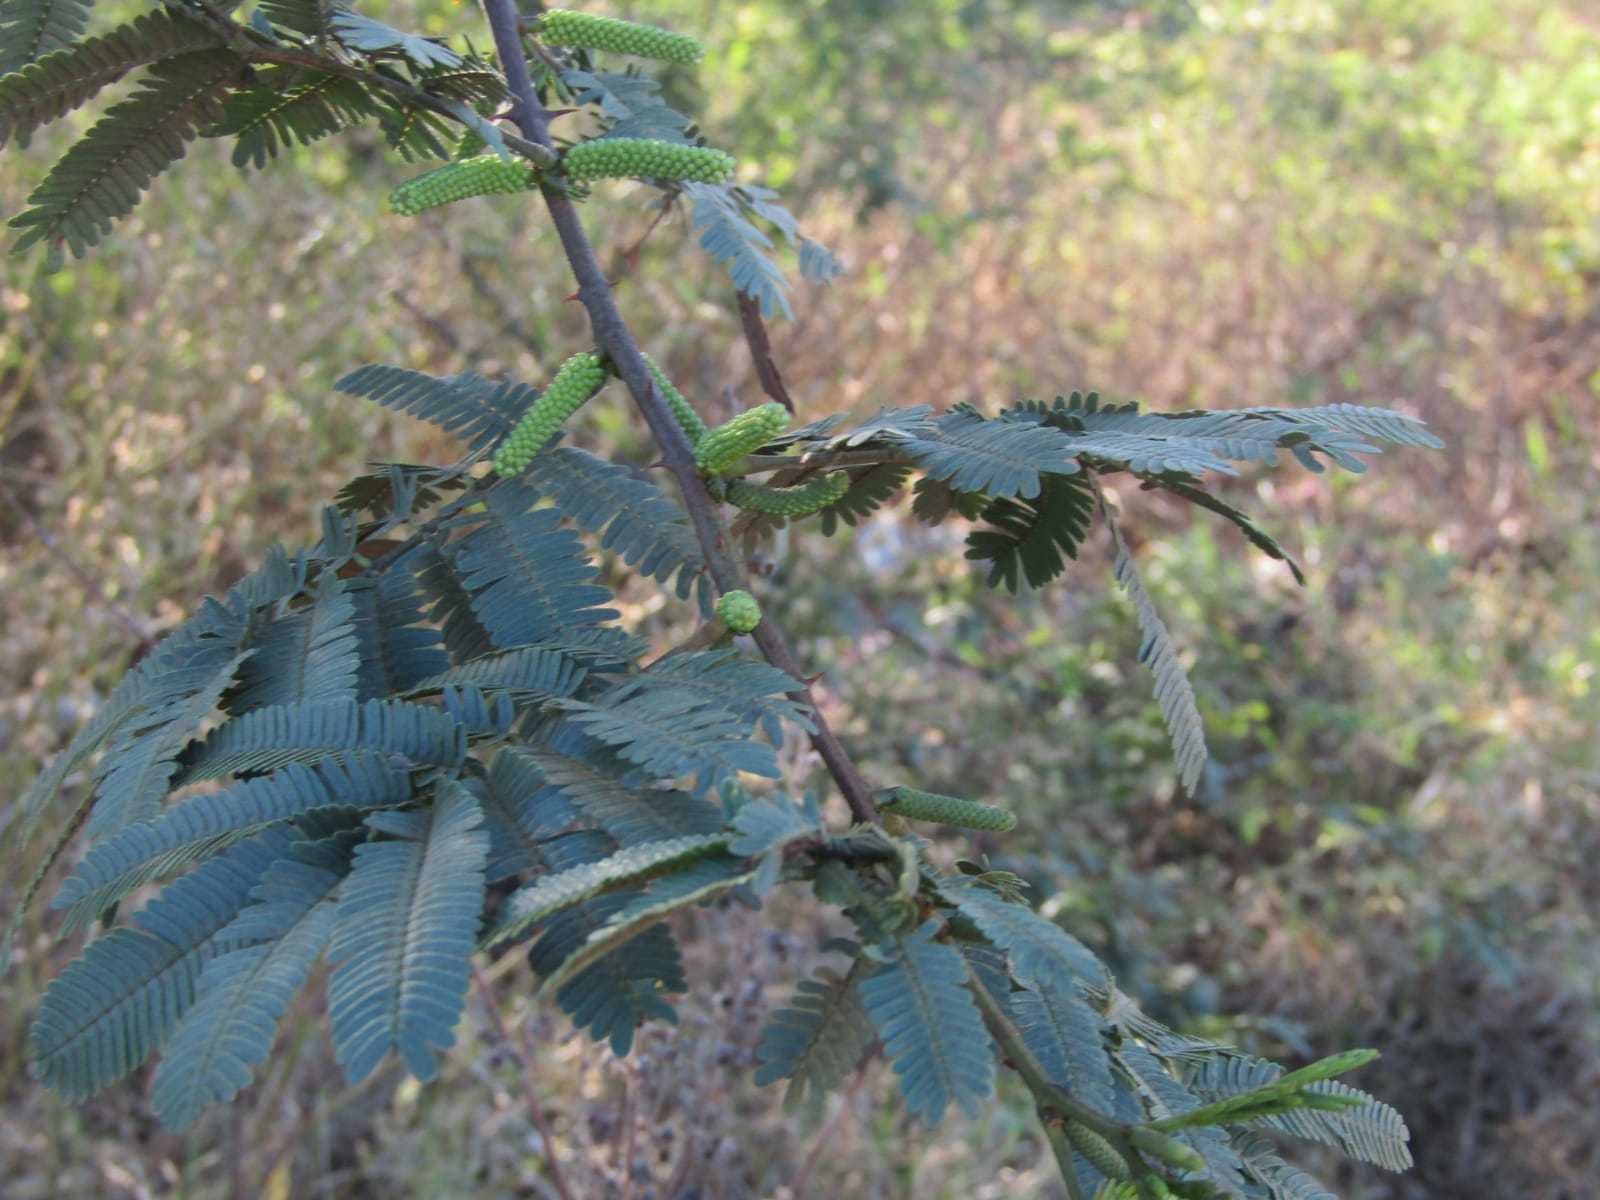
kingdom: Plantae
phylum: Tracheophyta
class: Magnoliopsida
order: Fabales
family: Fabaceae
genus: Mimosa
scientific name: Mimosa tenuiflora
